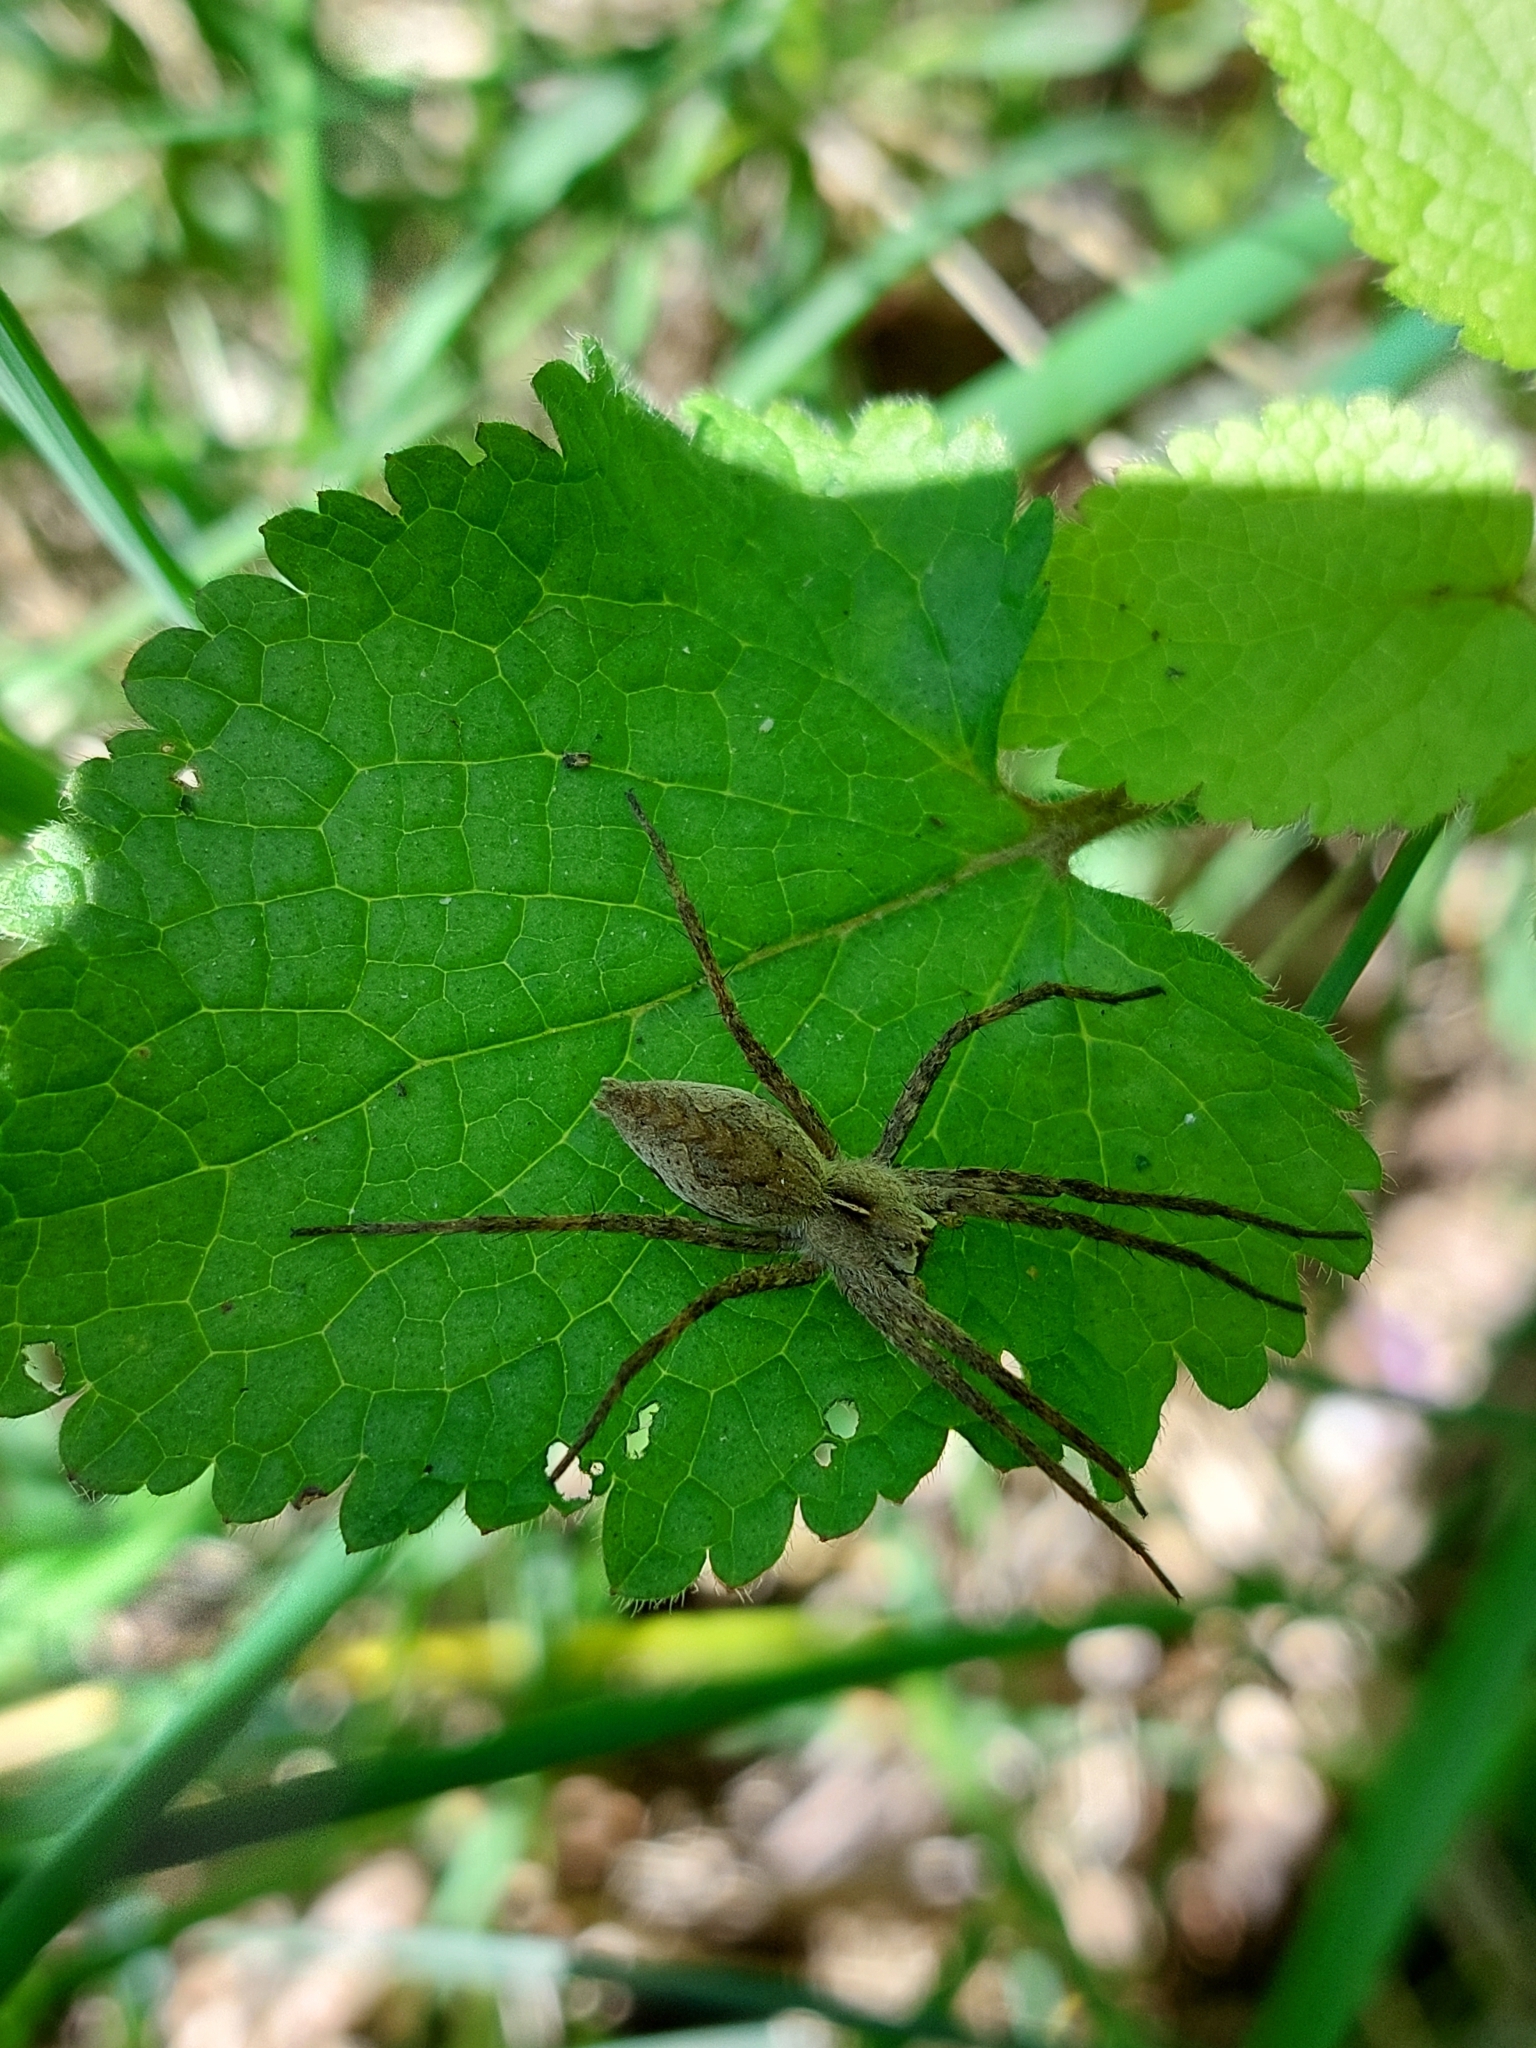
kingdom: Animalia
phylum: Arthropoda
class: Arachnida
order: Araneae
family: Pisauridae
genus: Pisaura
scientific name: Pisaura
